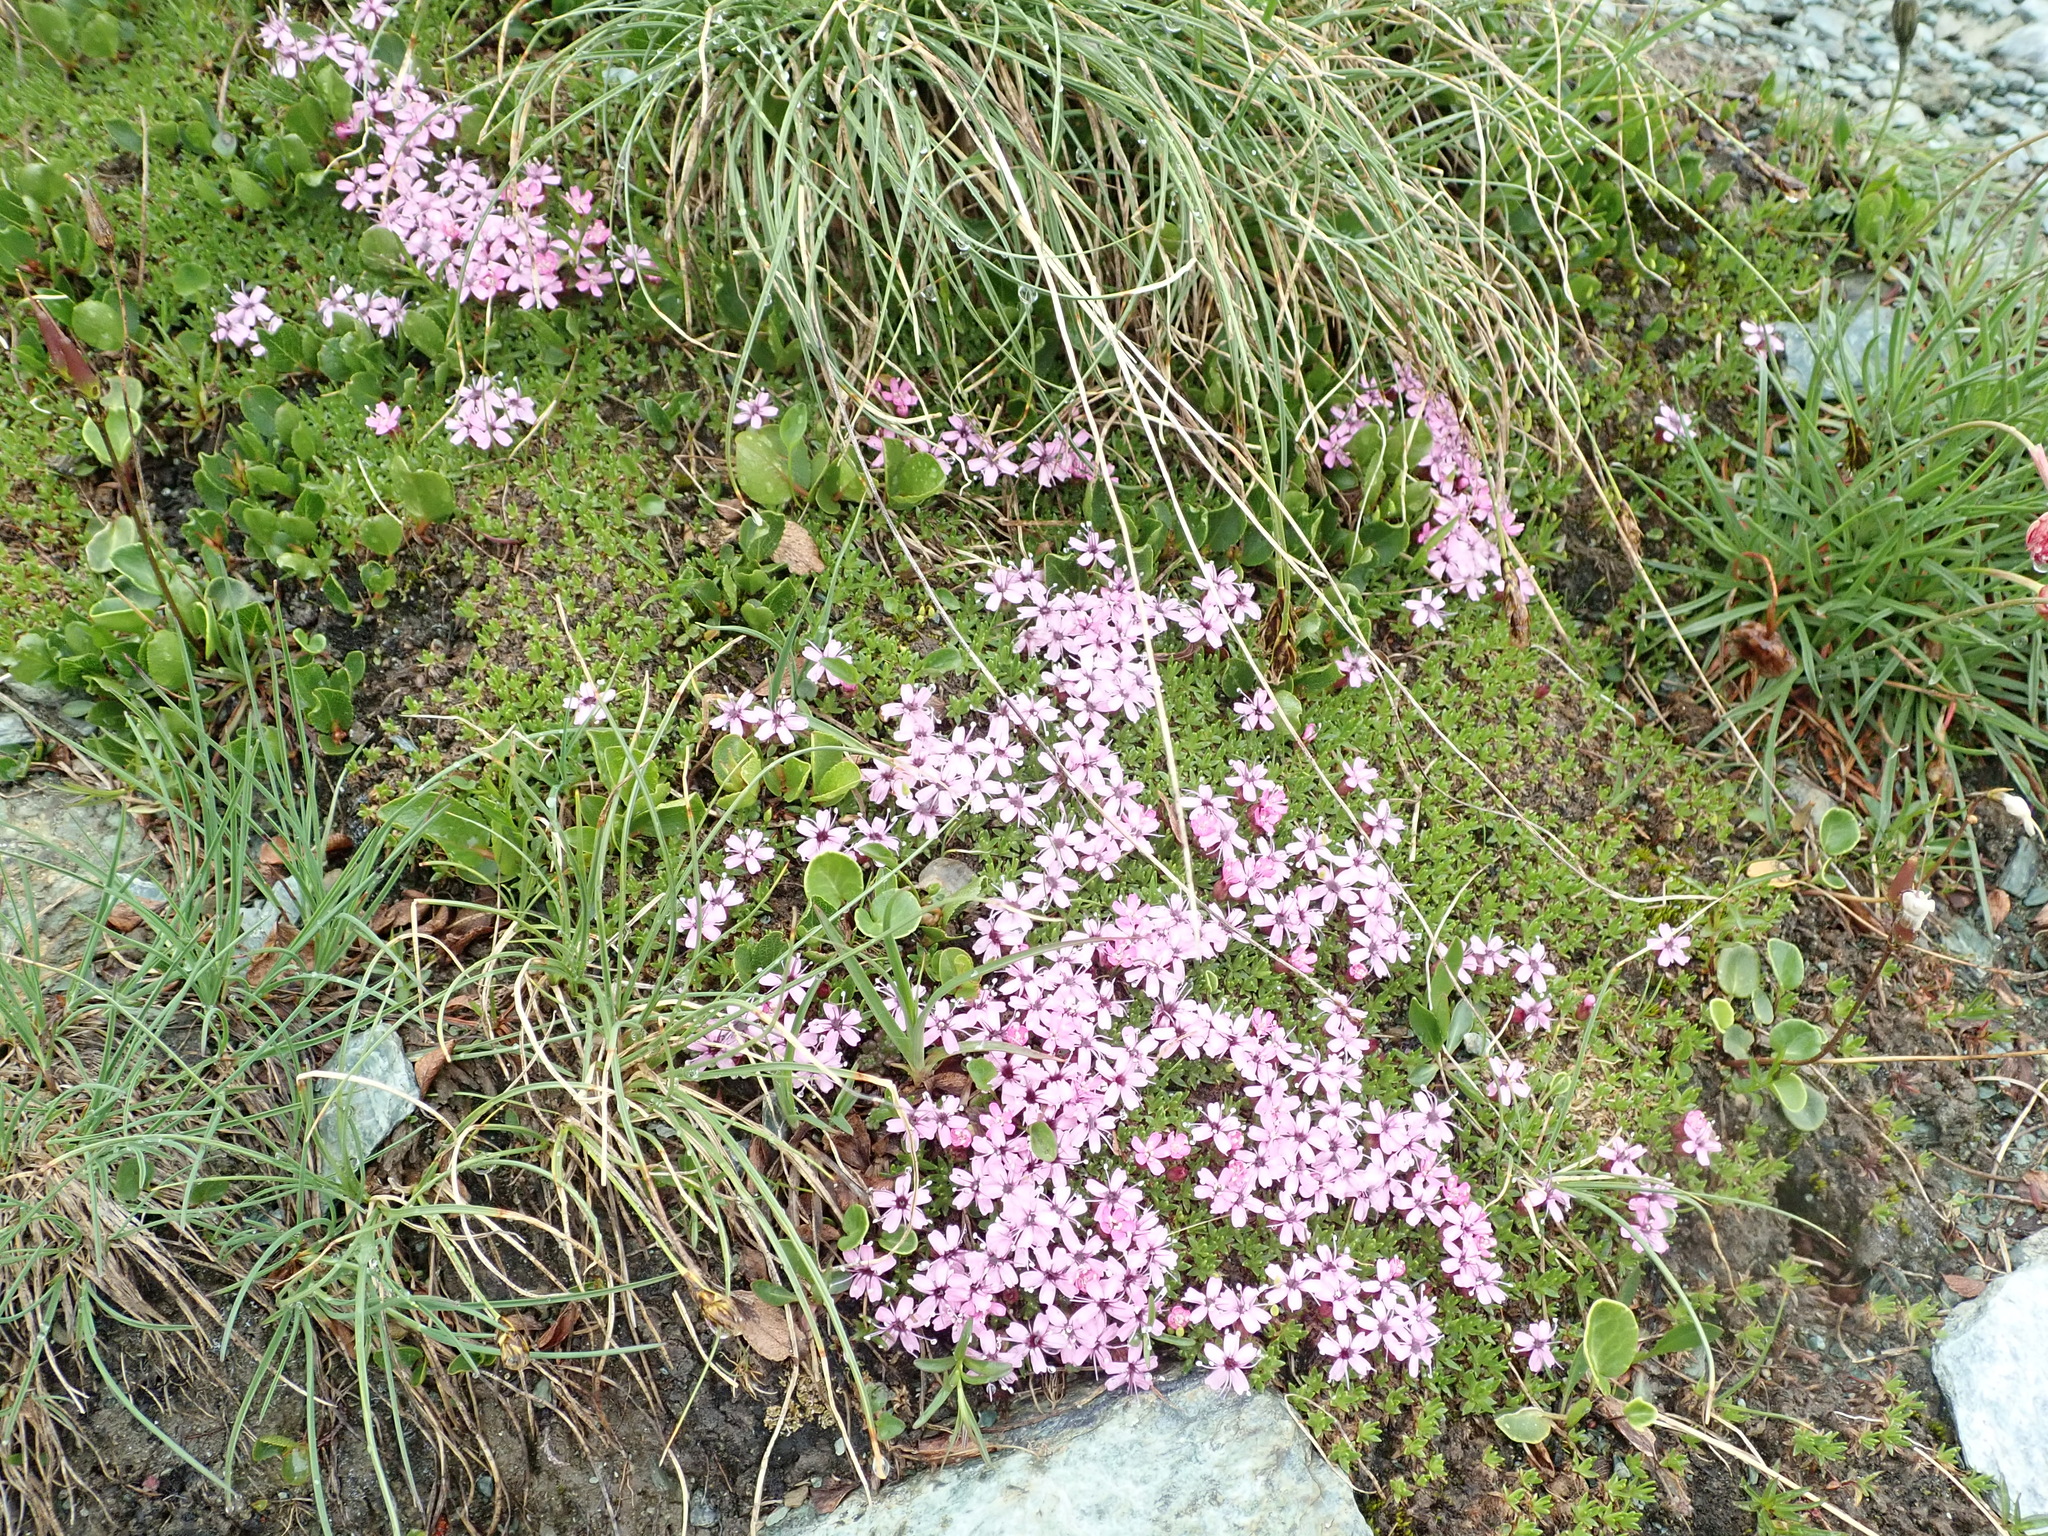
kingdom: Plantae
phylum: Tracheophyta
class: Magnoliopsida
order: Caryophyllales
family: Caryophyllaceae
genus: Silene
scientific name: Silene acaulis
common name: Moss campion
